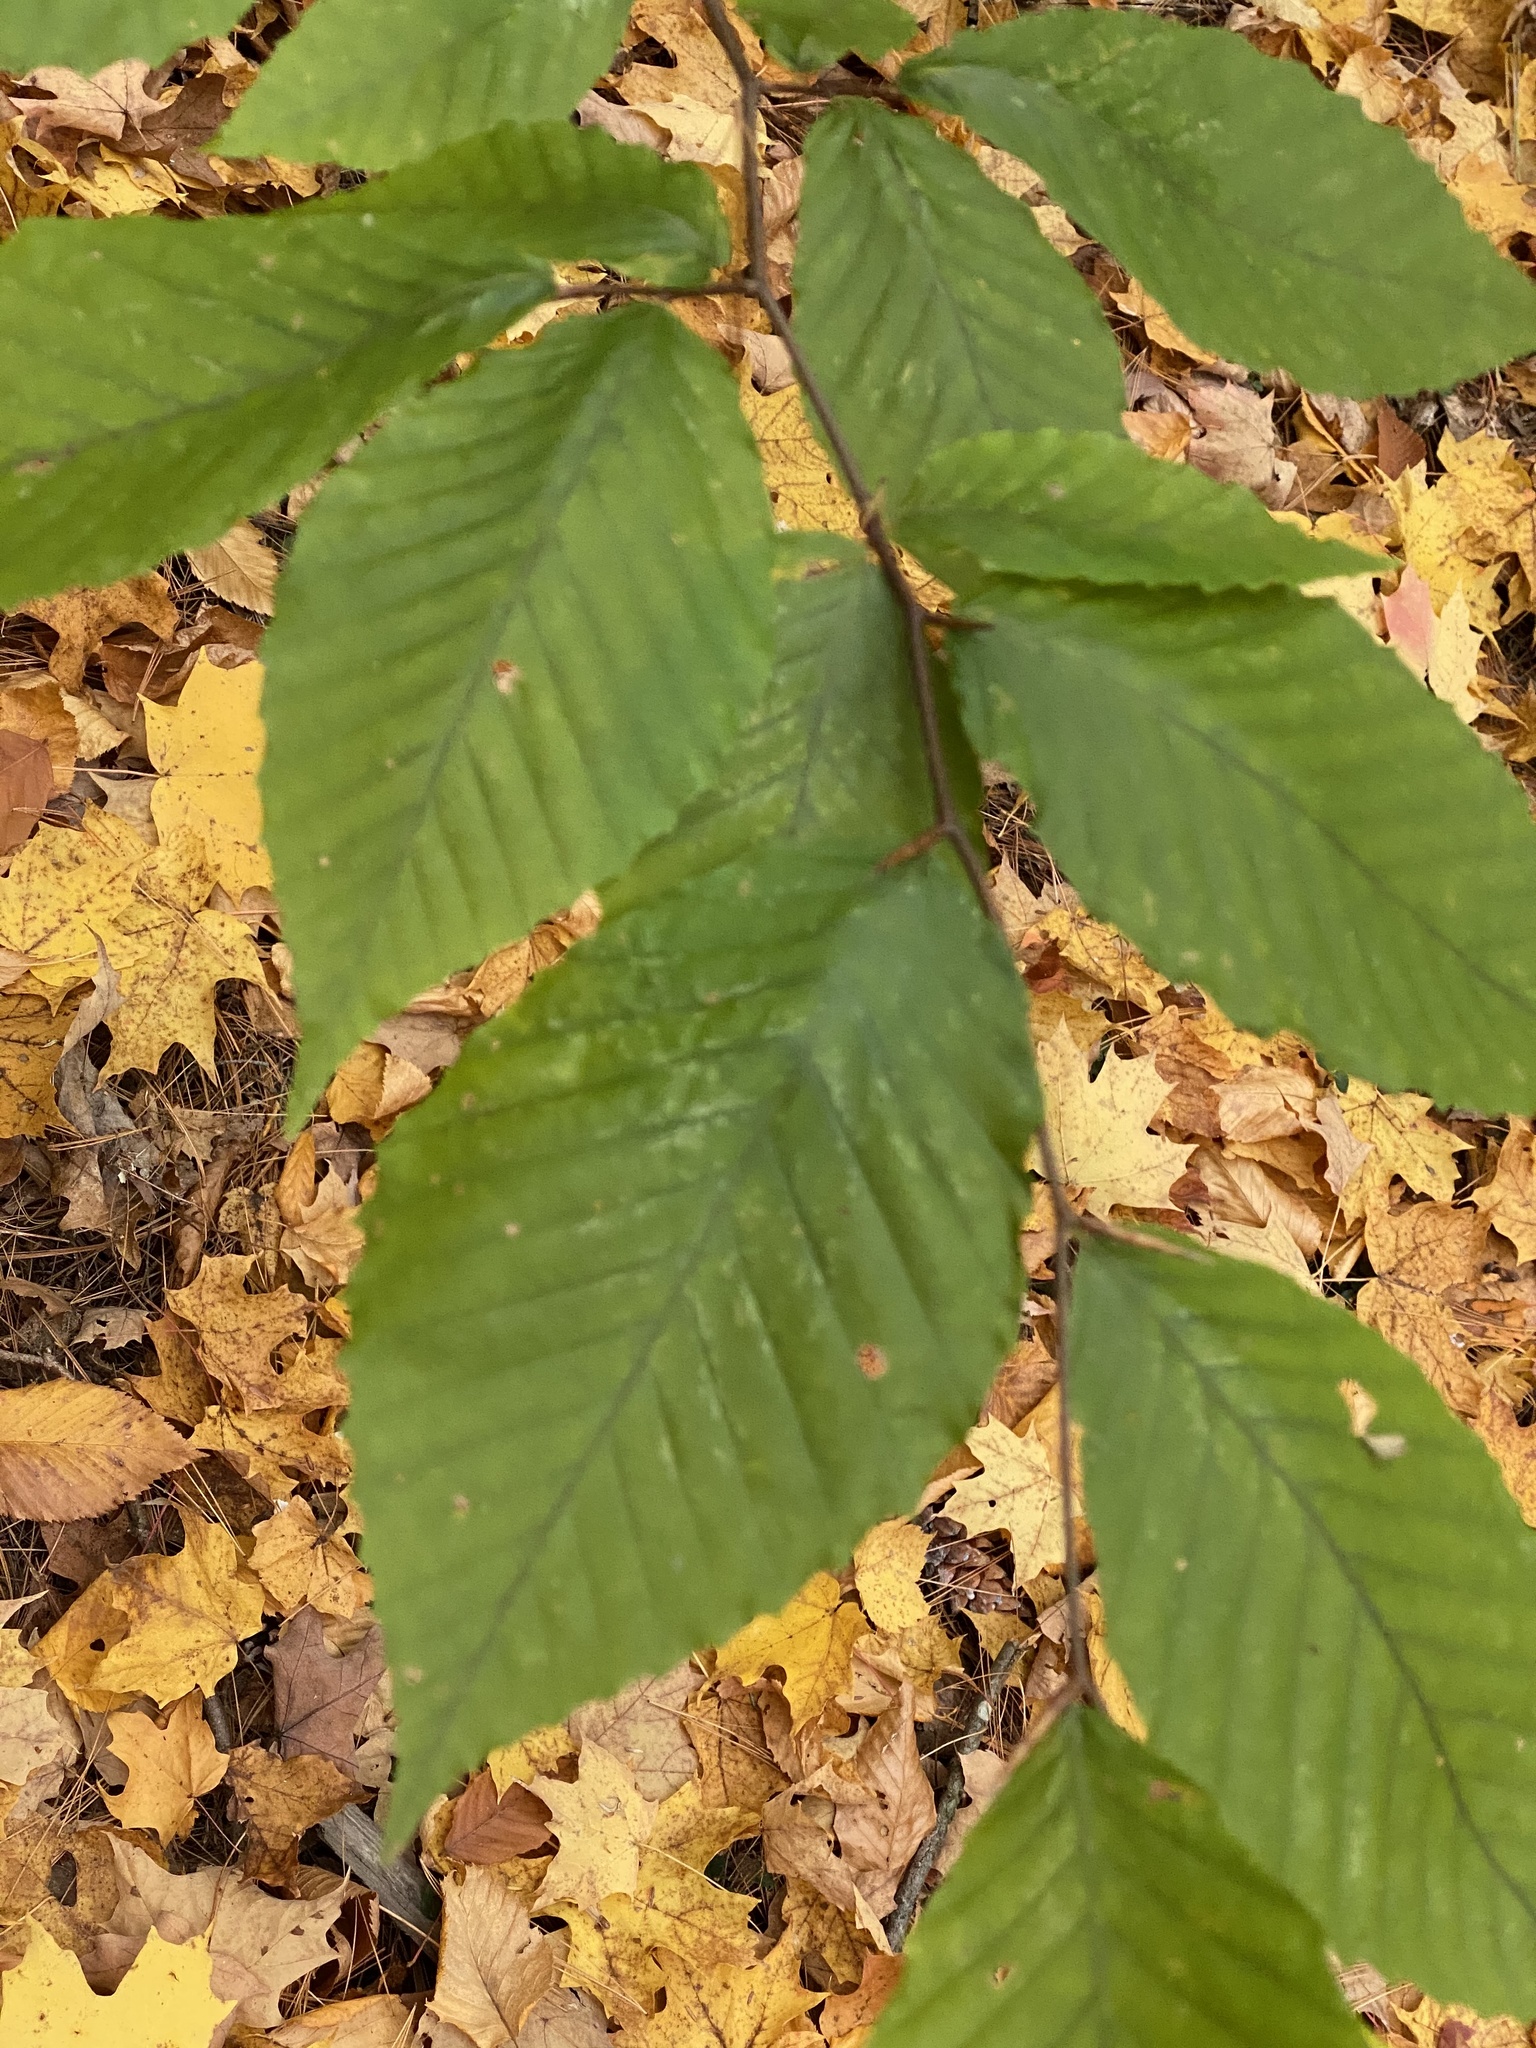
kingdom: Plantae
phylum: Tracheophyta
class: Magnoliopsida
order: Fagales
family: Fagaceae
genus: Fagus
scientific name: Fagus grandifolia
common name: American beech
